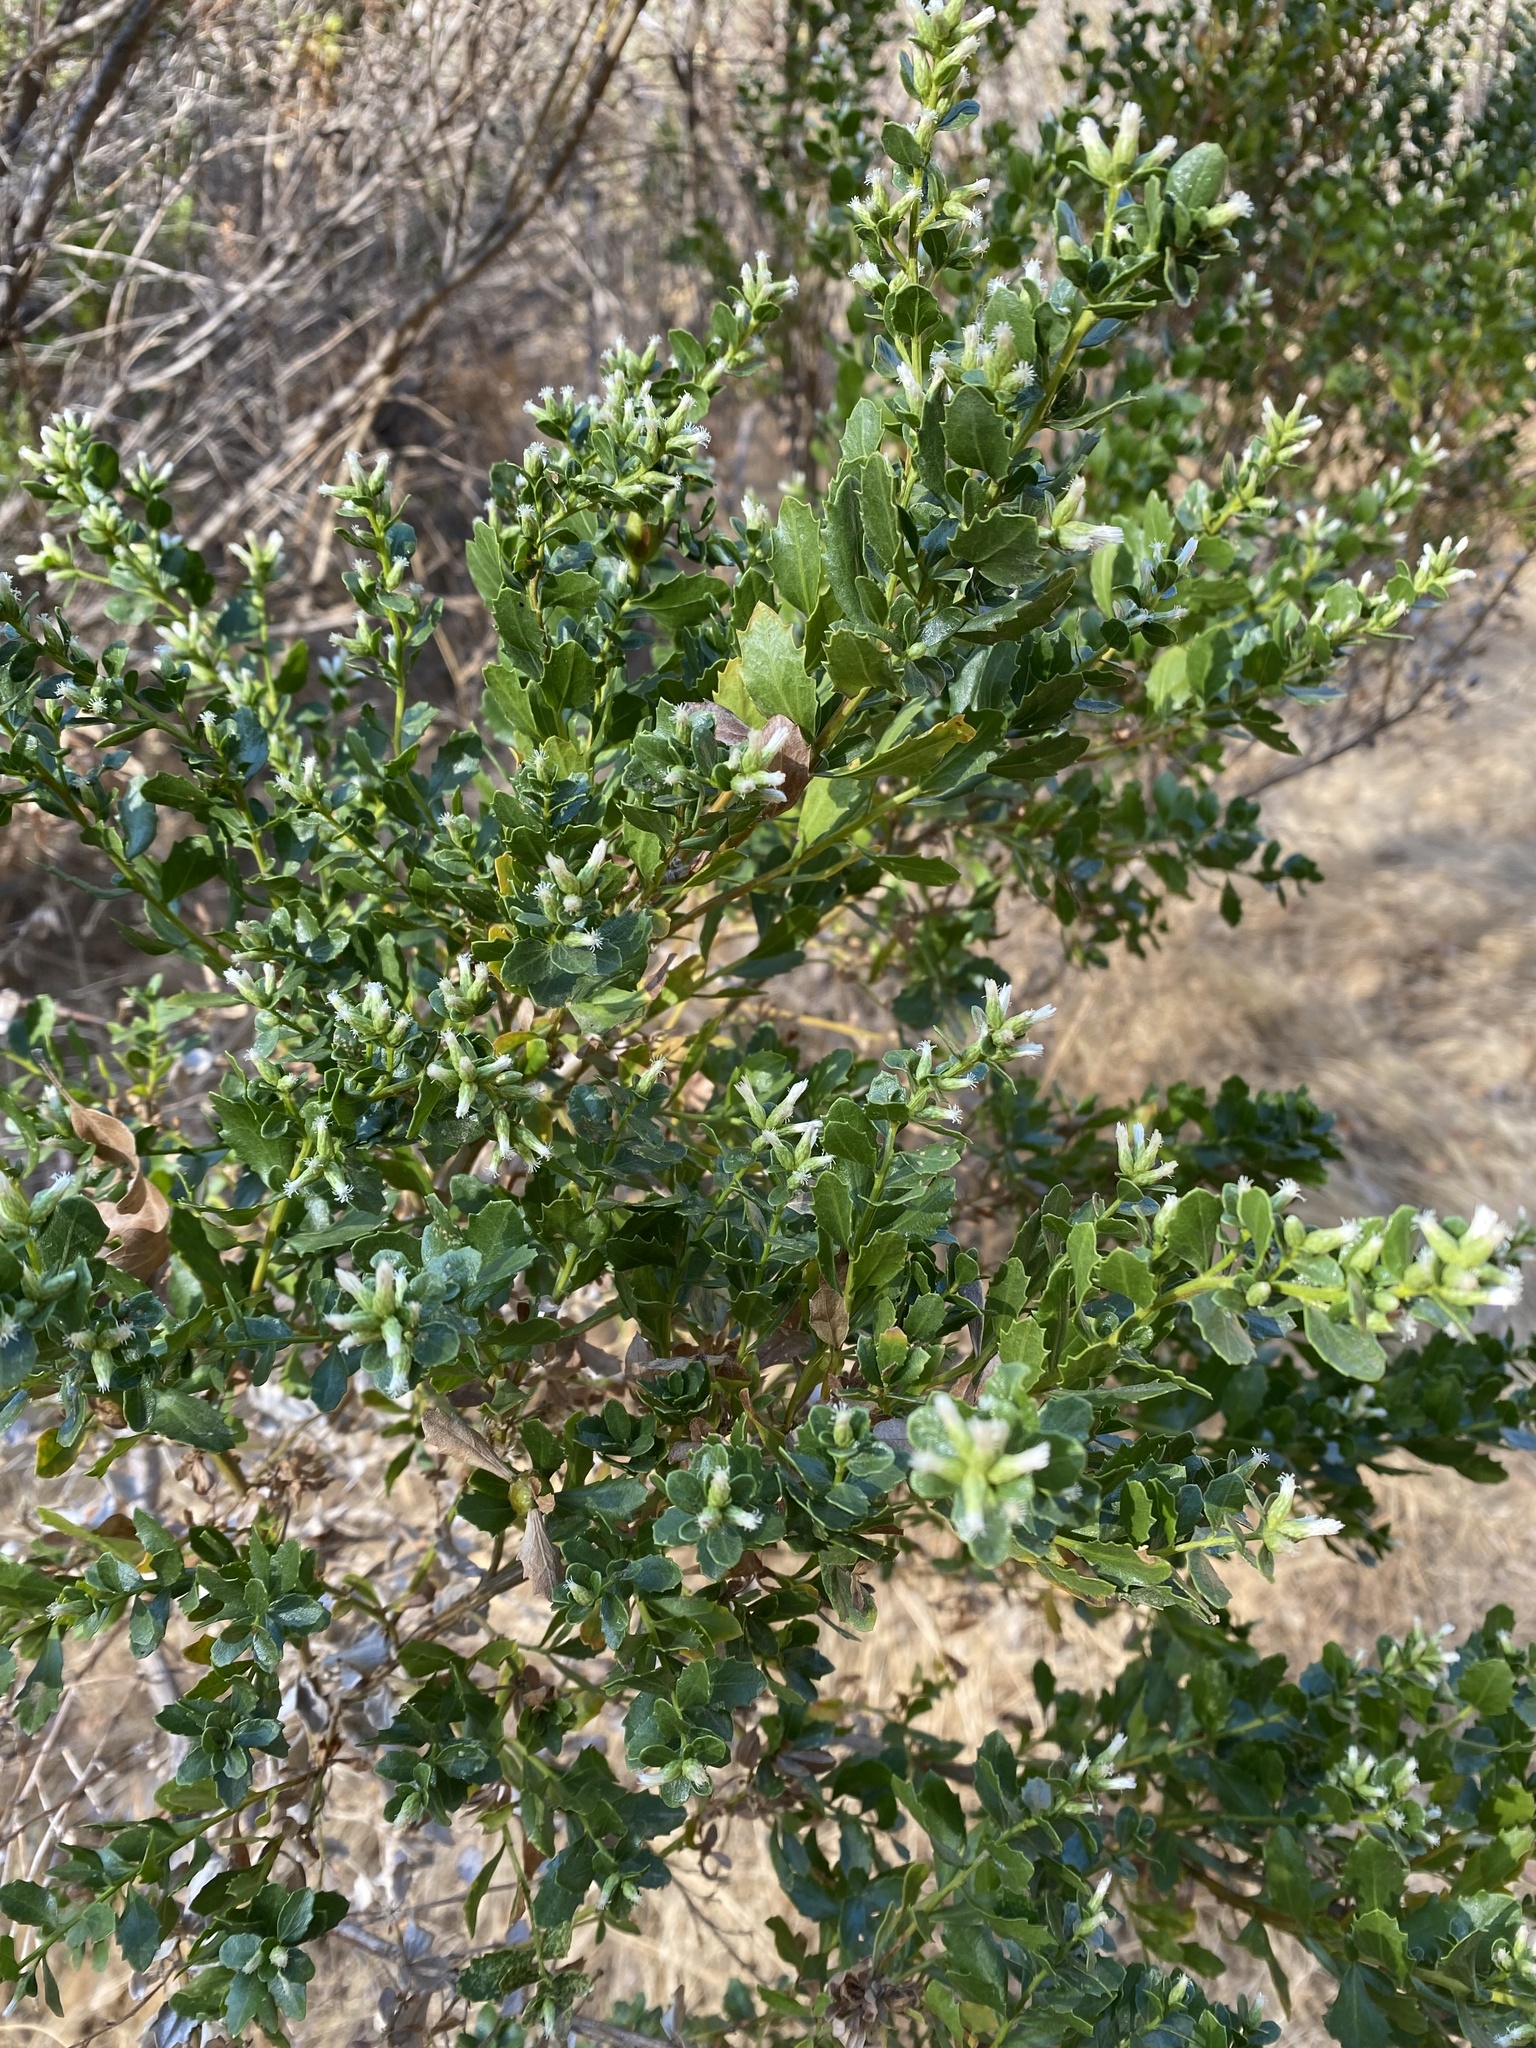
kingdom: Plantae
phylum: Tracheophyta
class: Magnoliopsida
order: Asterales
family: Asteraceae
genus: Baccharis
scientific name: Baccharis pilularis
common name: Coyotebrush
